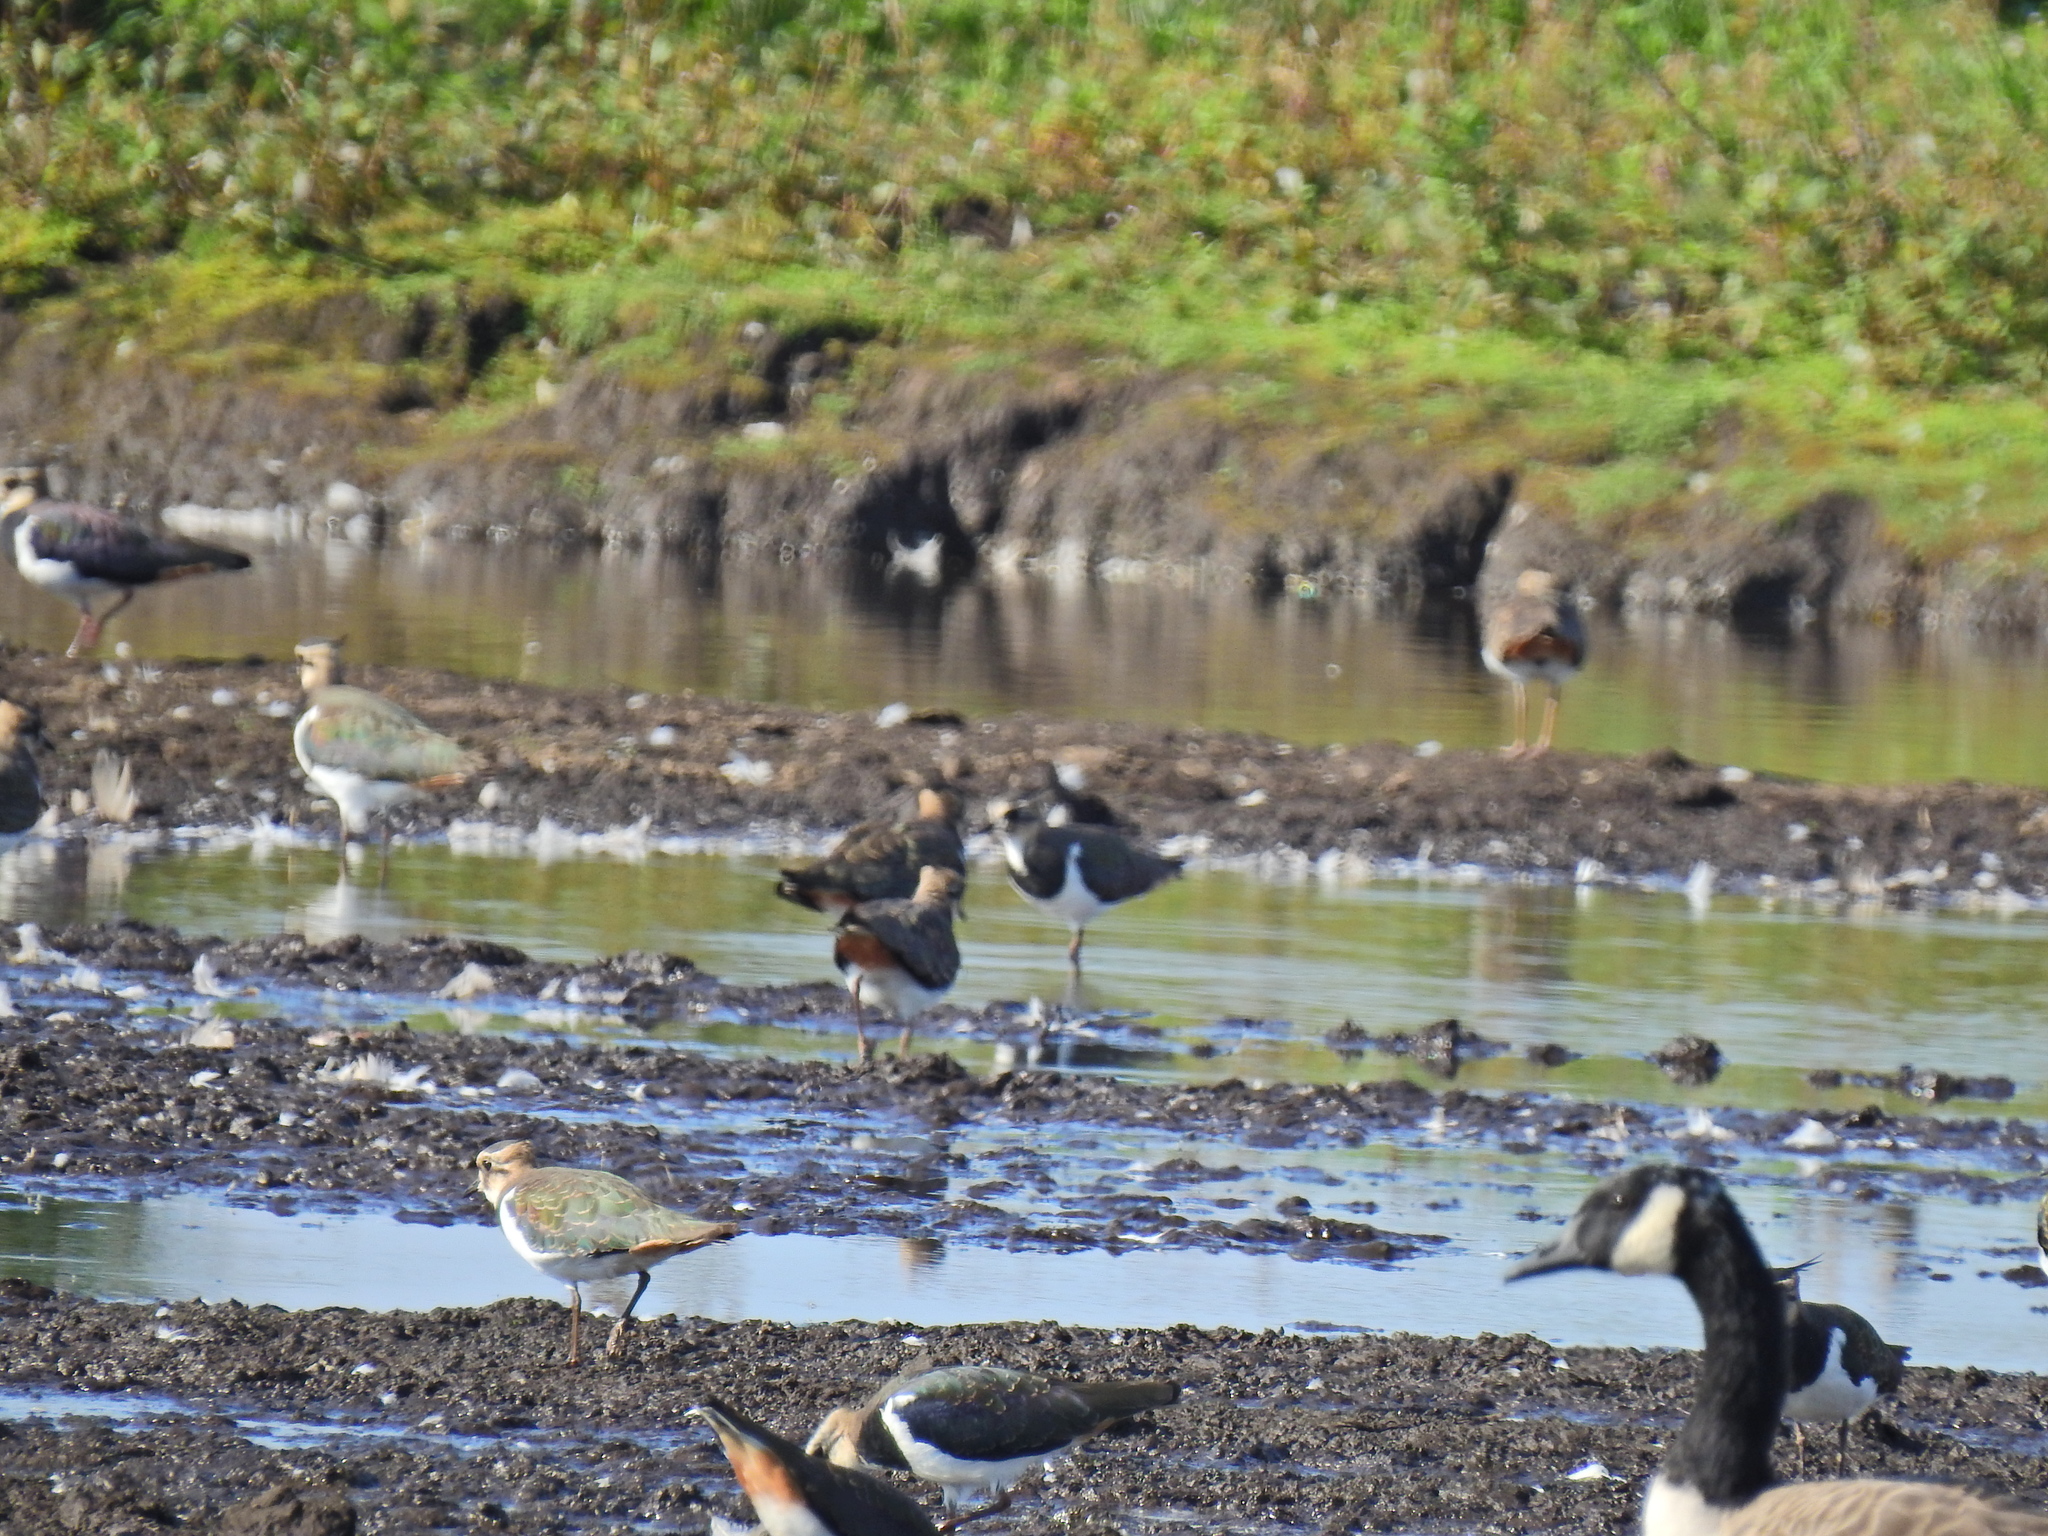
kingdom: Animalia
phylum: Chordata
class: Aves
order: Charadriiformes
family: Scolopacidae
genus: Limosa
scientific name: Limosa limosa
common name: Black-tailed godwit
